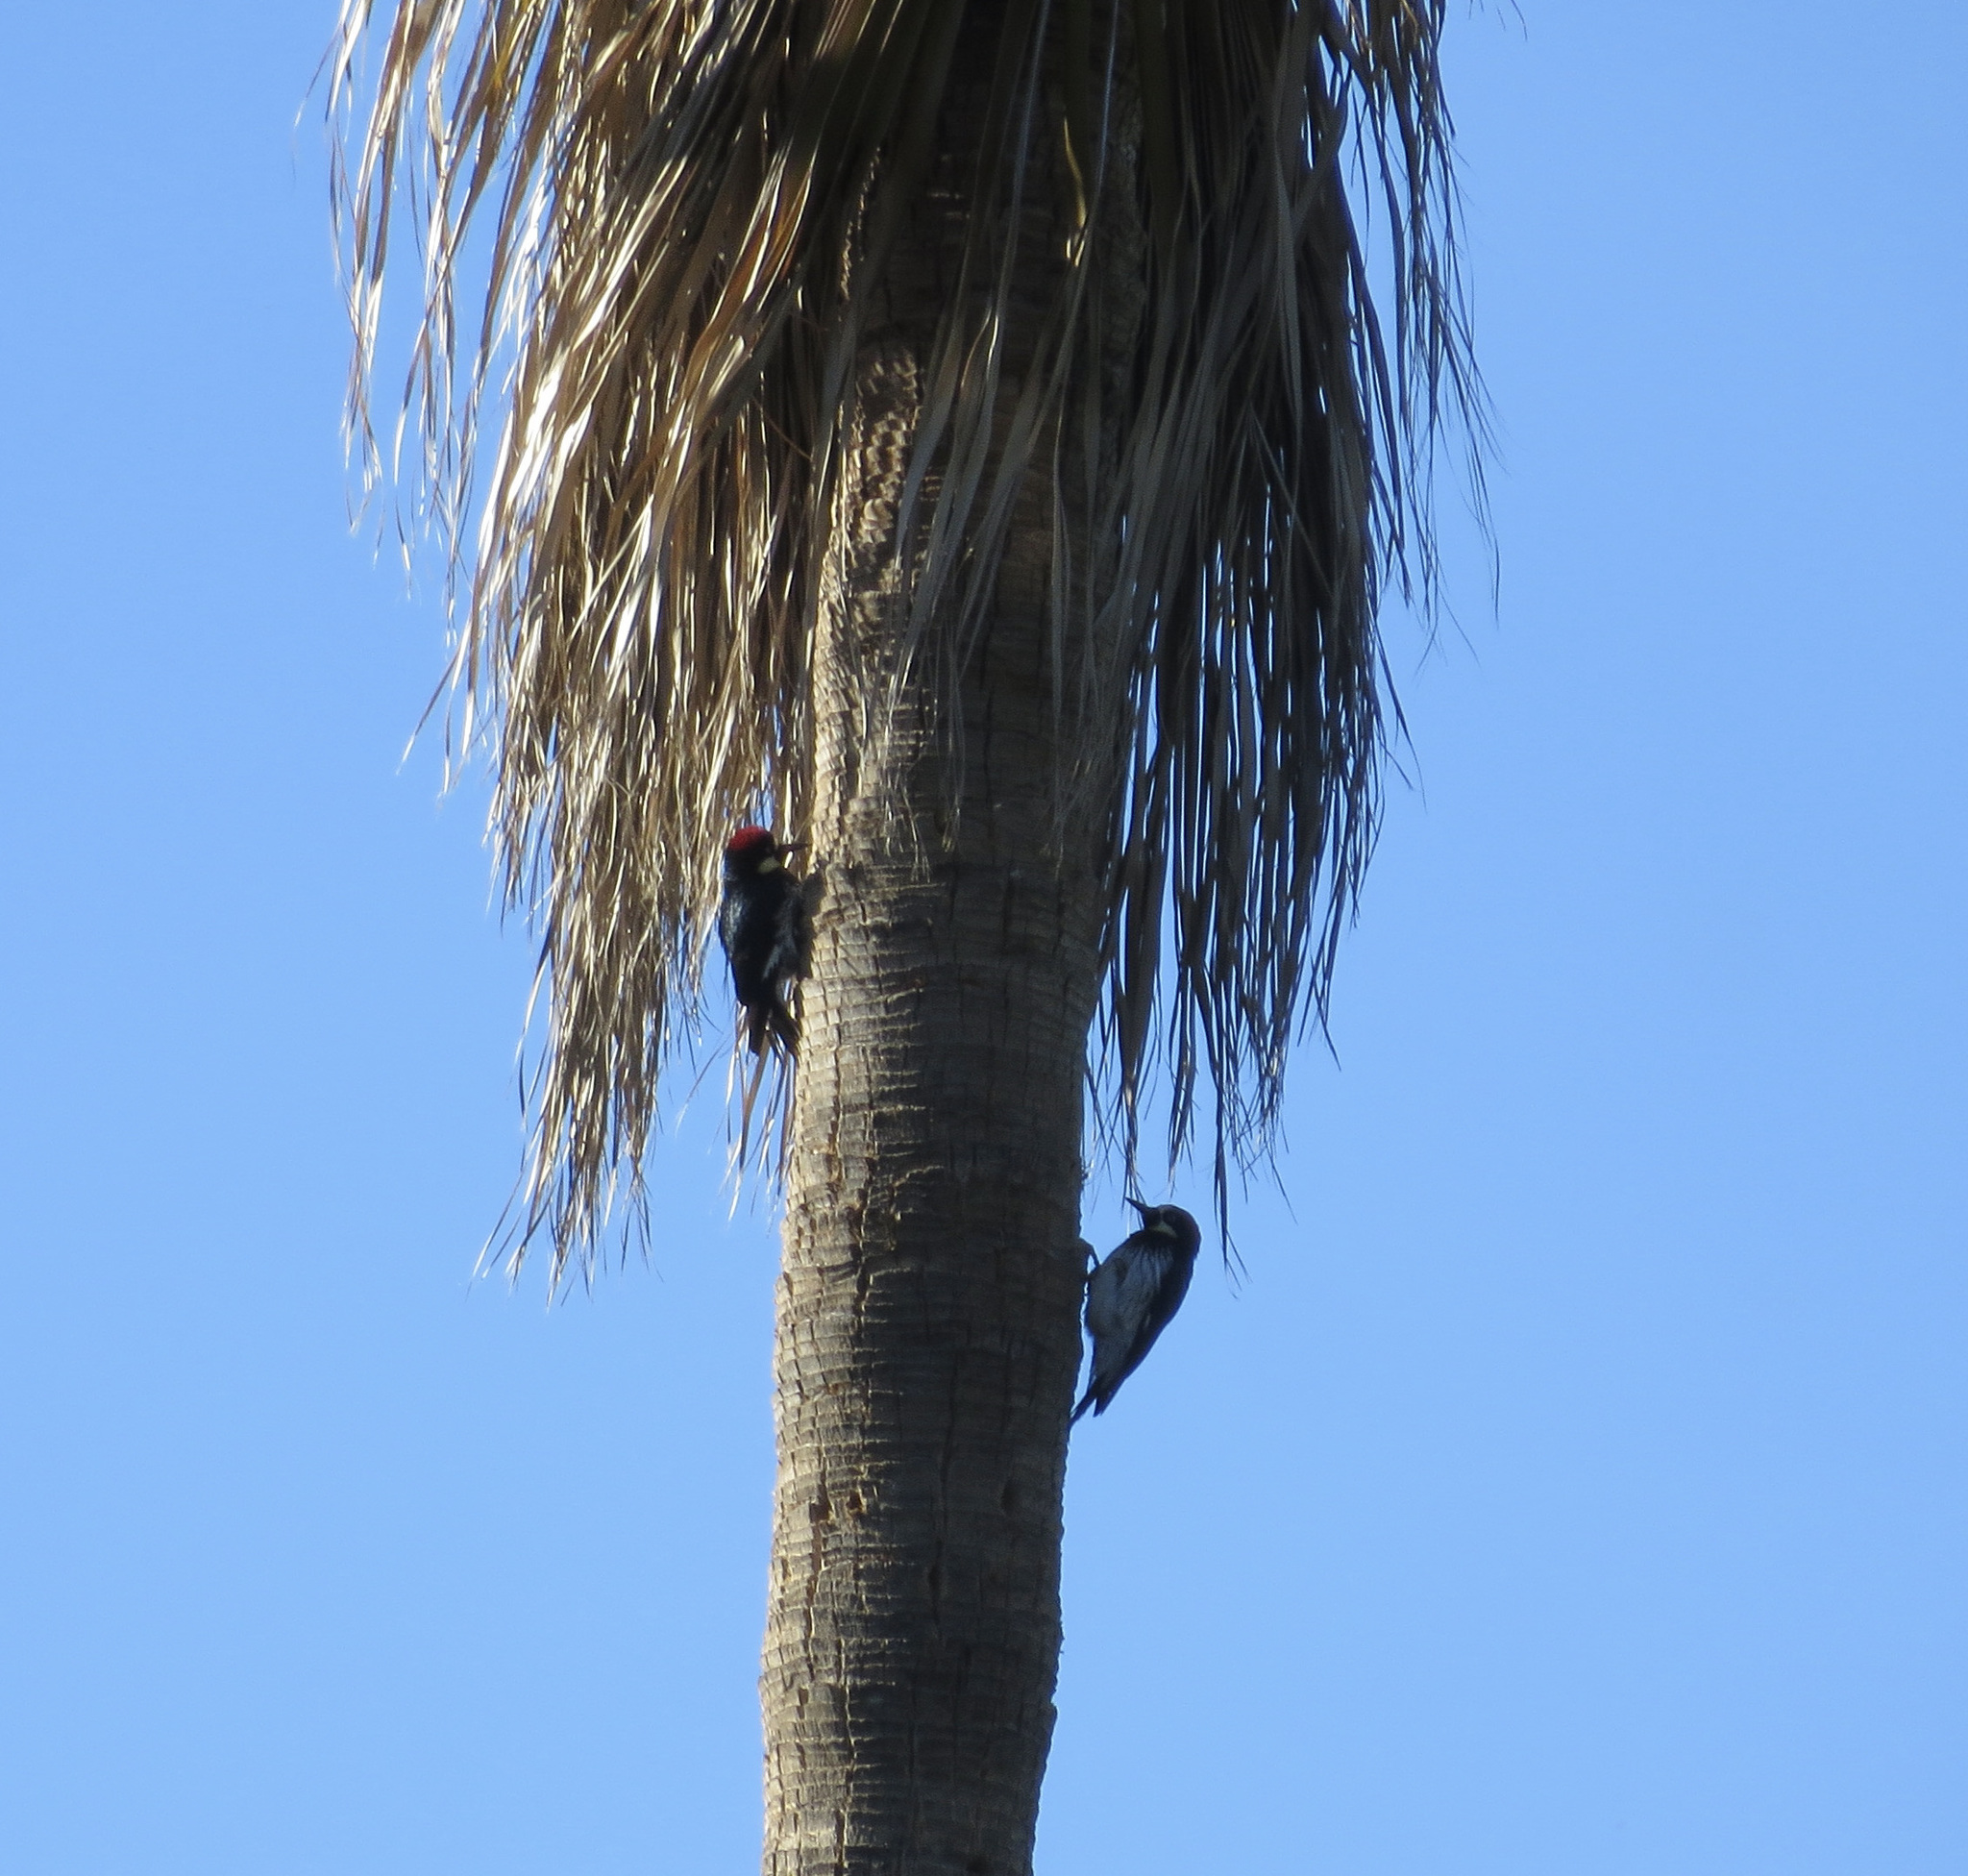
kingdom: Animalia
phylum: Chordata
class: Aves
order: Piciformes
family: Picidae
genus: Melanerpes
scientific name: Melanerpes formicivorus
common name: Acorn woodpecker
